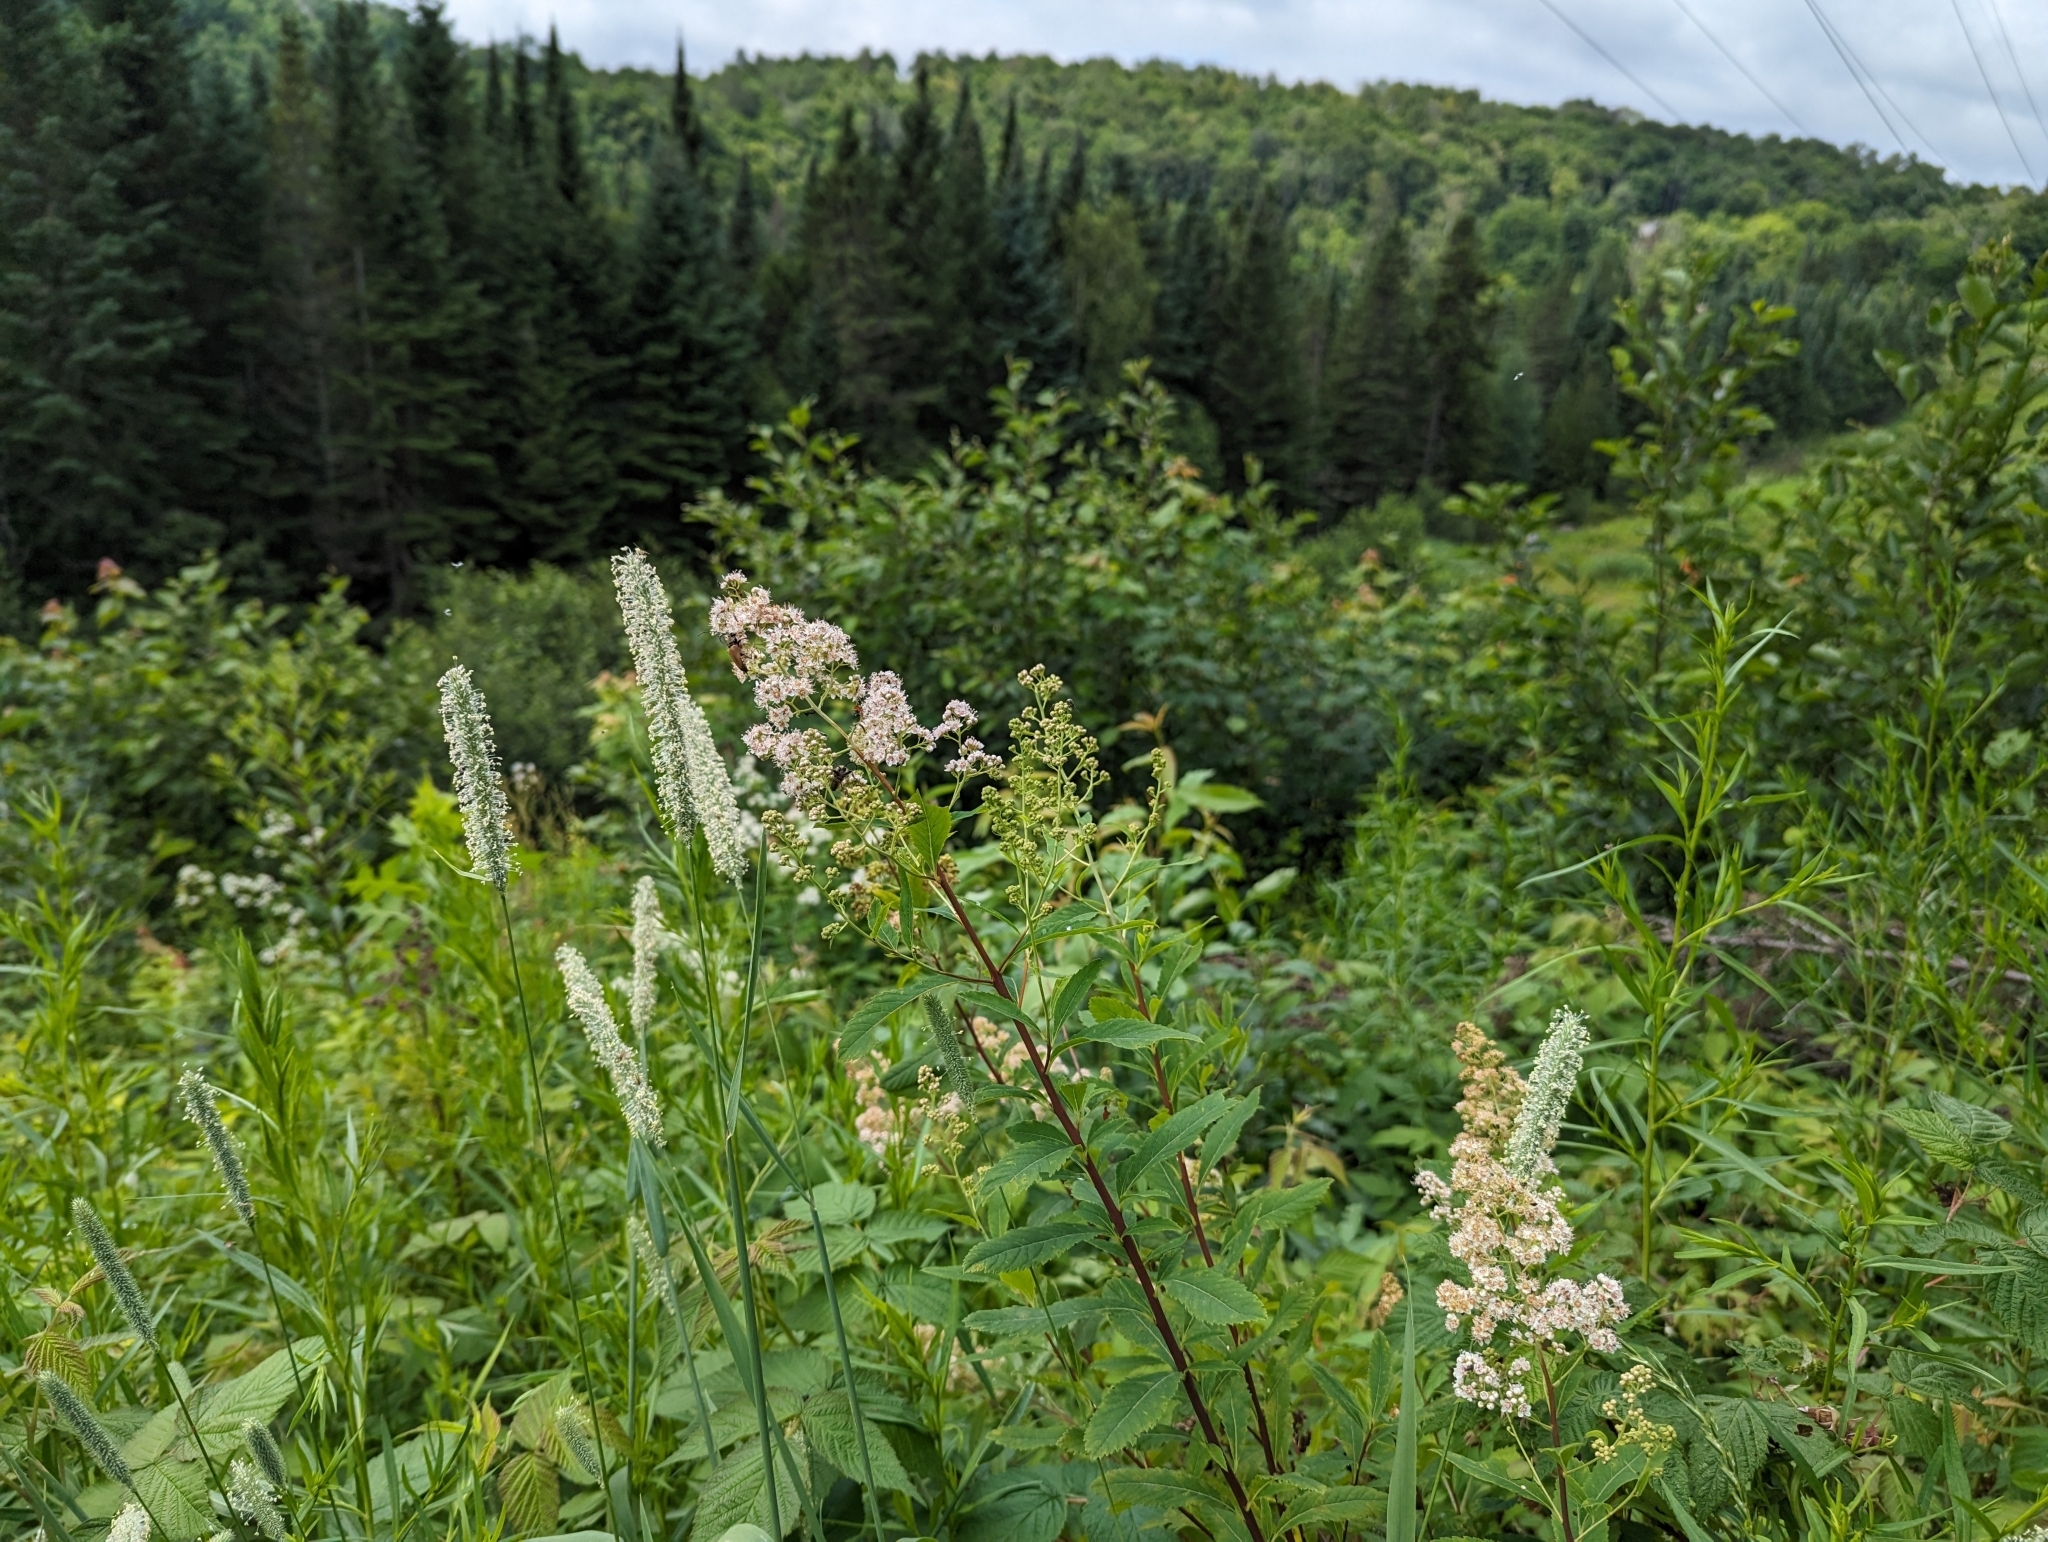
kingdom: Plantae
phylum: Tracheophyta
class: Magnoliopsida
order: Rosales
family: Rosaceae
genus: Spiraea
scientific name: Spiraea alba
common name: Pale bridewort
